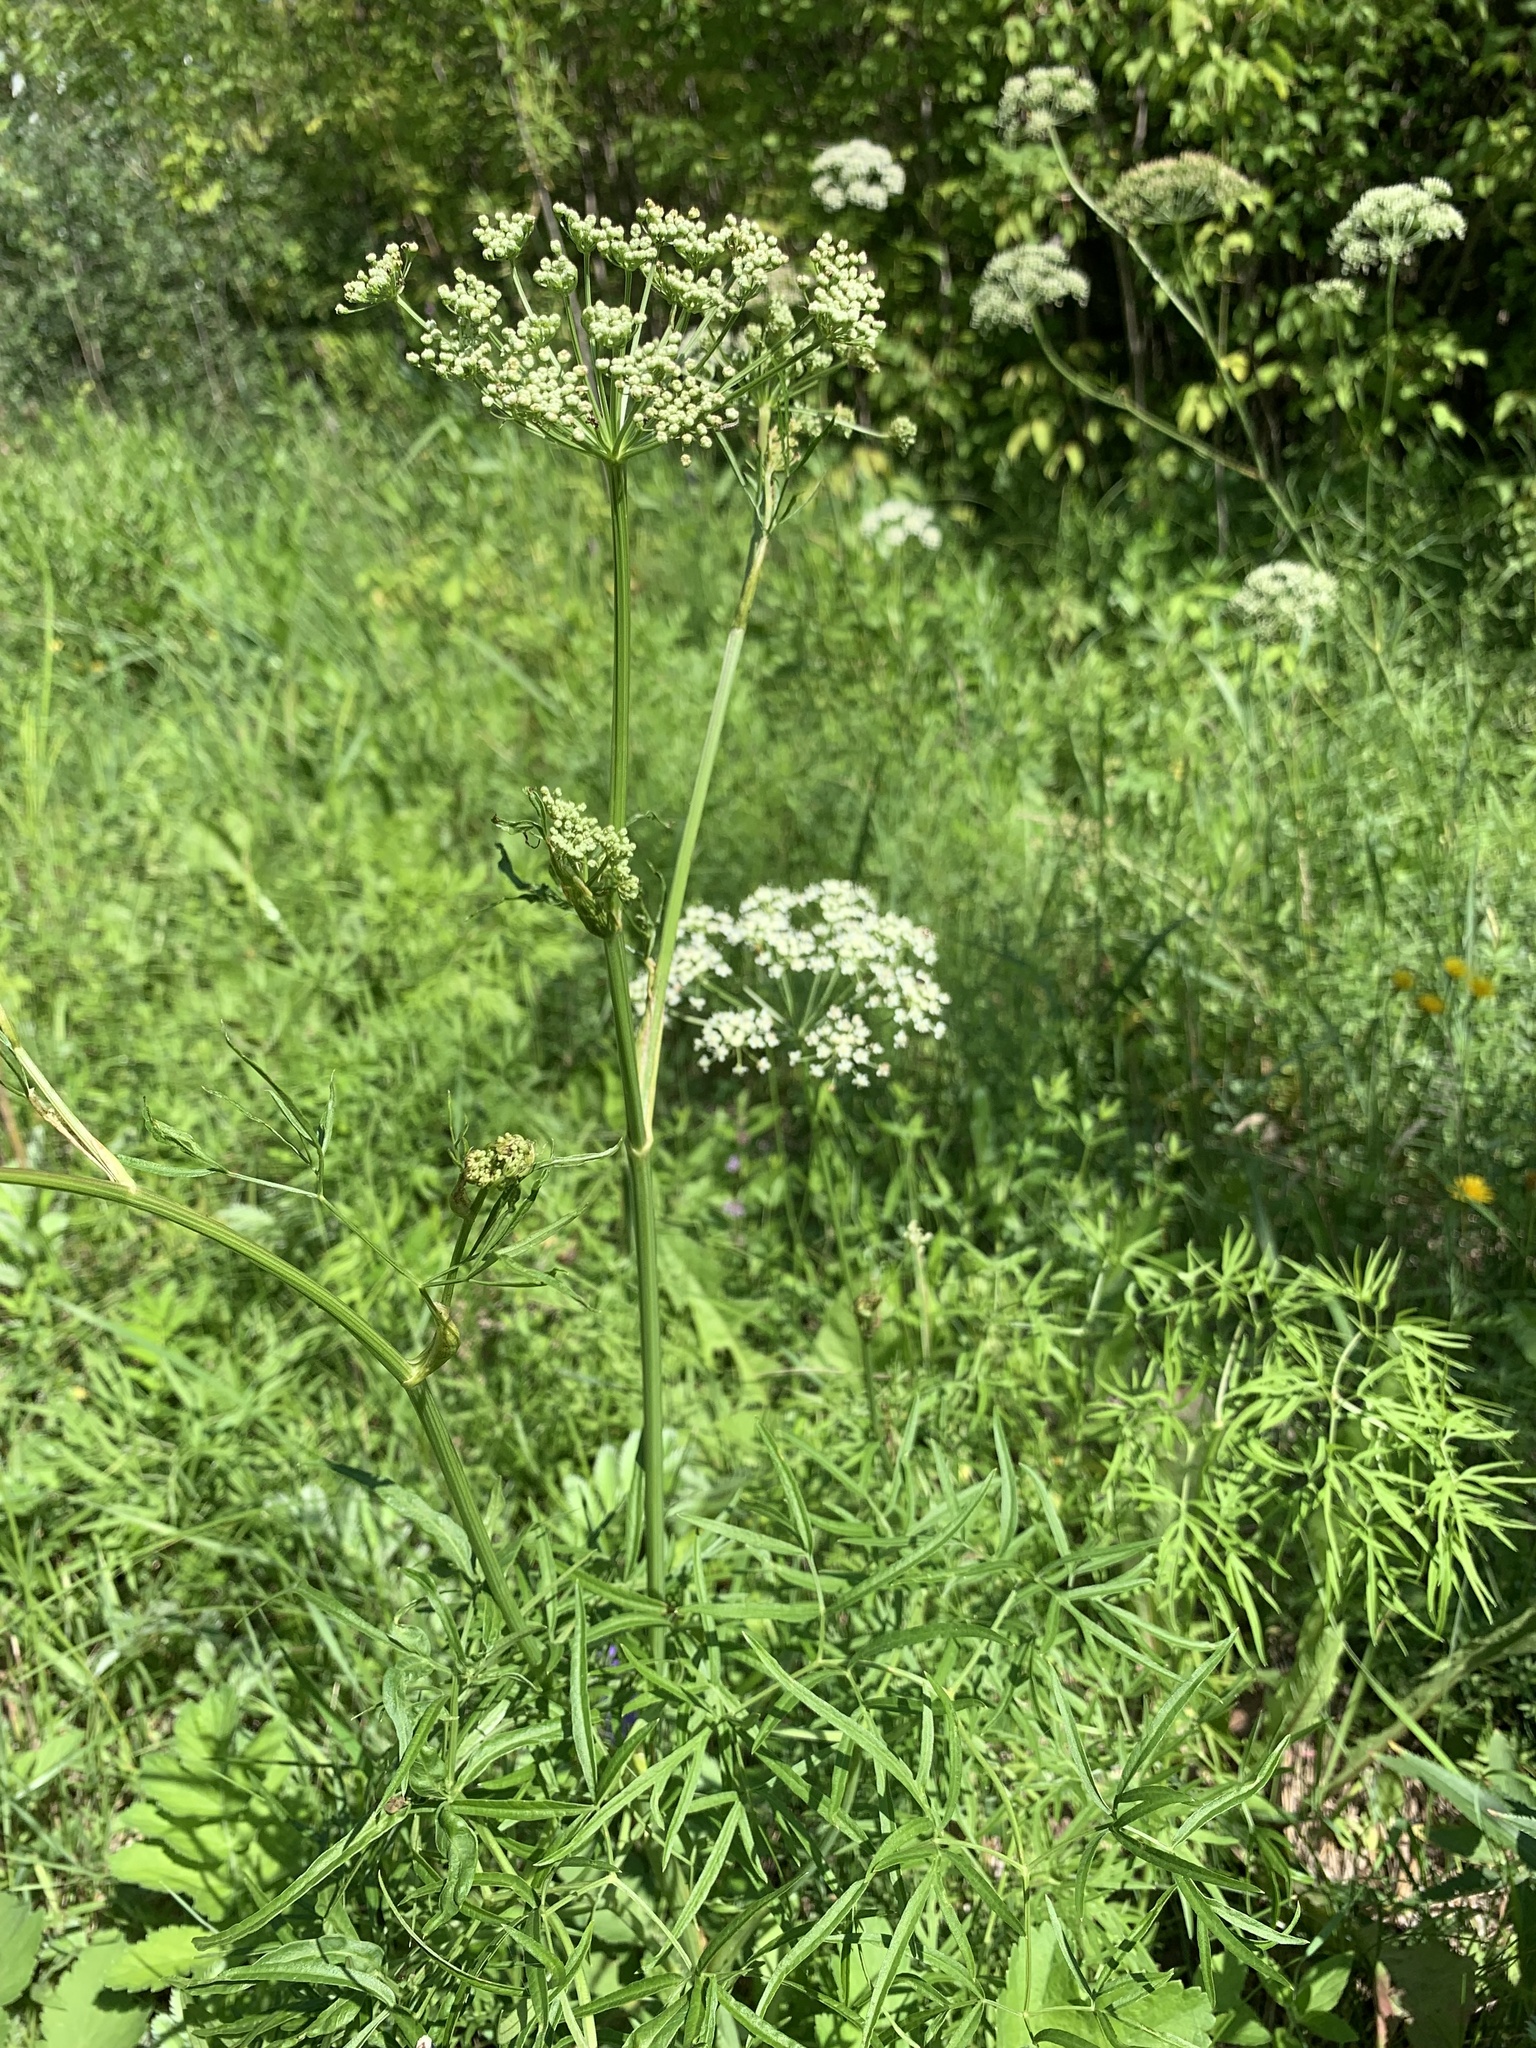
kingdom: Plantae
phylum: Tracheophyta
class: Magnoliopsida
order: Apiales
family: Apiaceae
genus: Cenolophium
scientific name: Cenolophium fischeri
